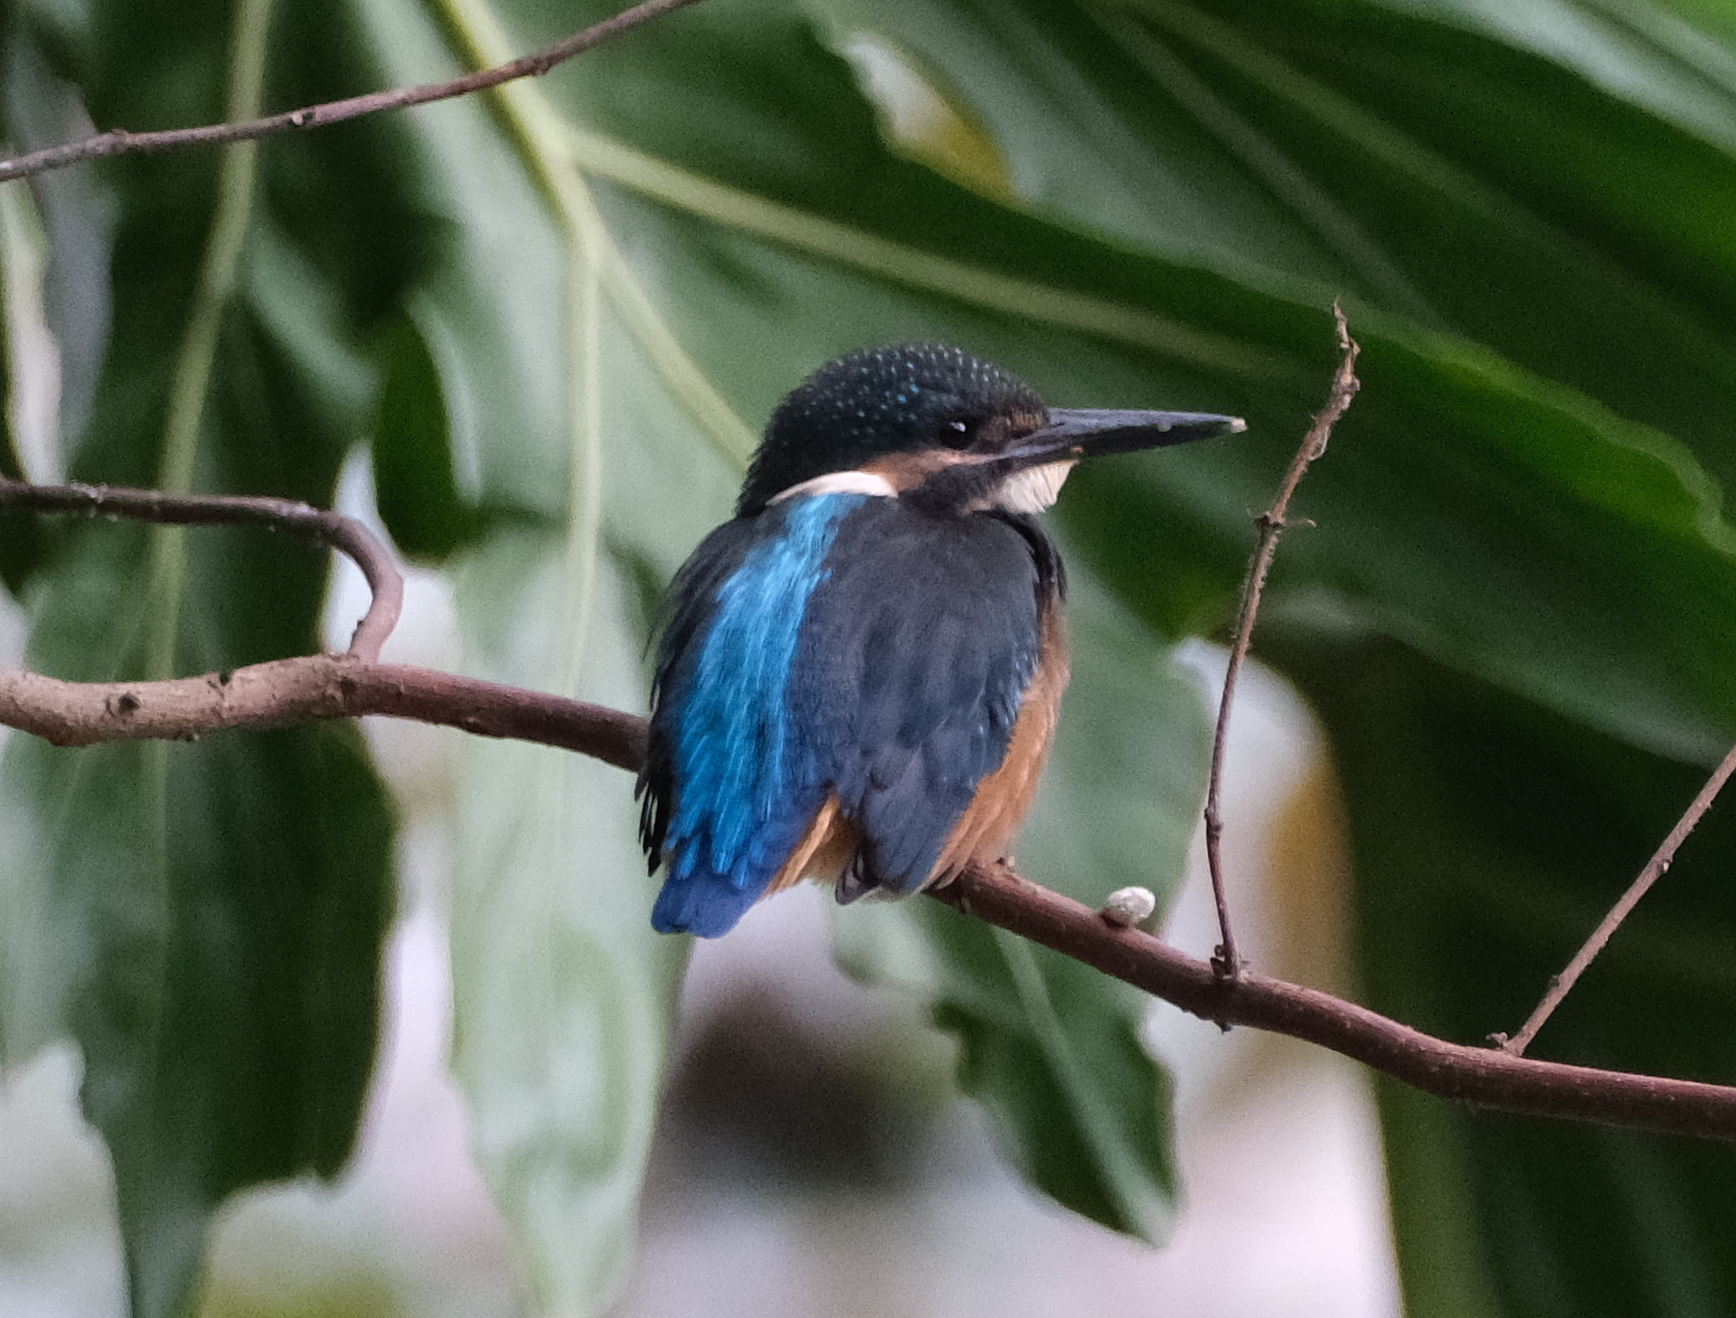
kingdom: Animalia
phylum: Chordata
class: Aves
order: Coraciiformes
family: Alcedinidae
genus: Alcedo
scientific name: Alcedo atthis
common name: Common kingfisher
